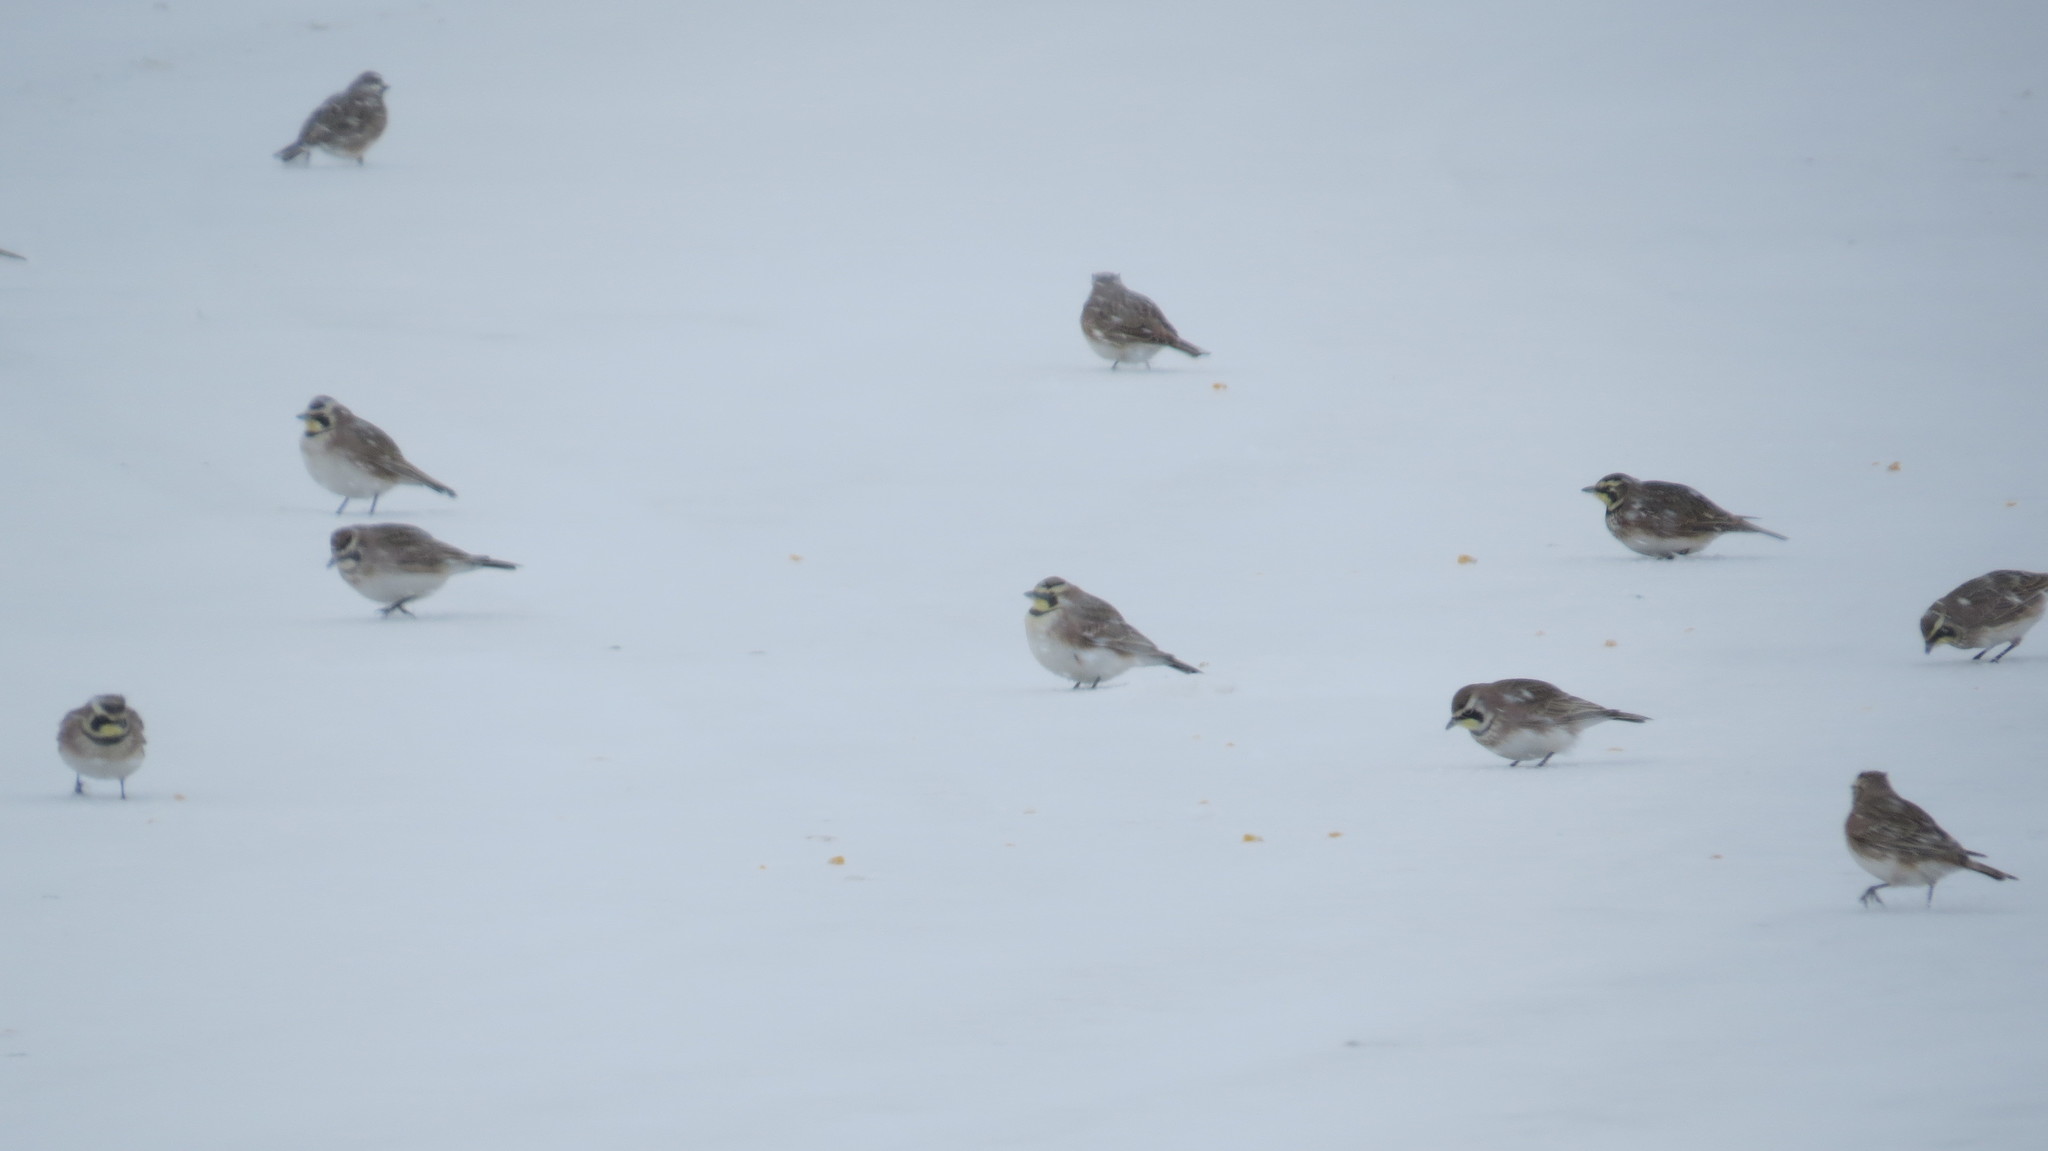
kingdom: Animalia
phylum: Chordata
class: Aves
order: Passeriformes
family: Alaudidae
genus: Eremophila
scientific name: Eremophila alpestris
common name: Horned lark
